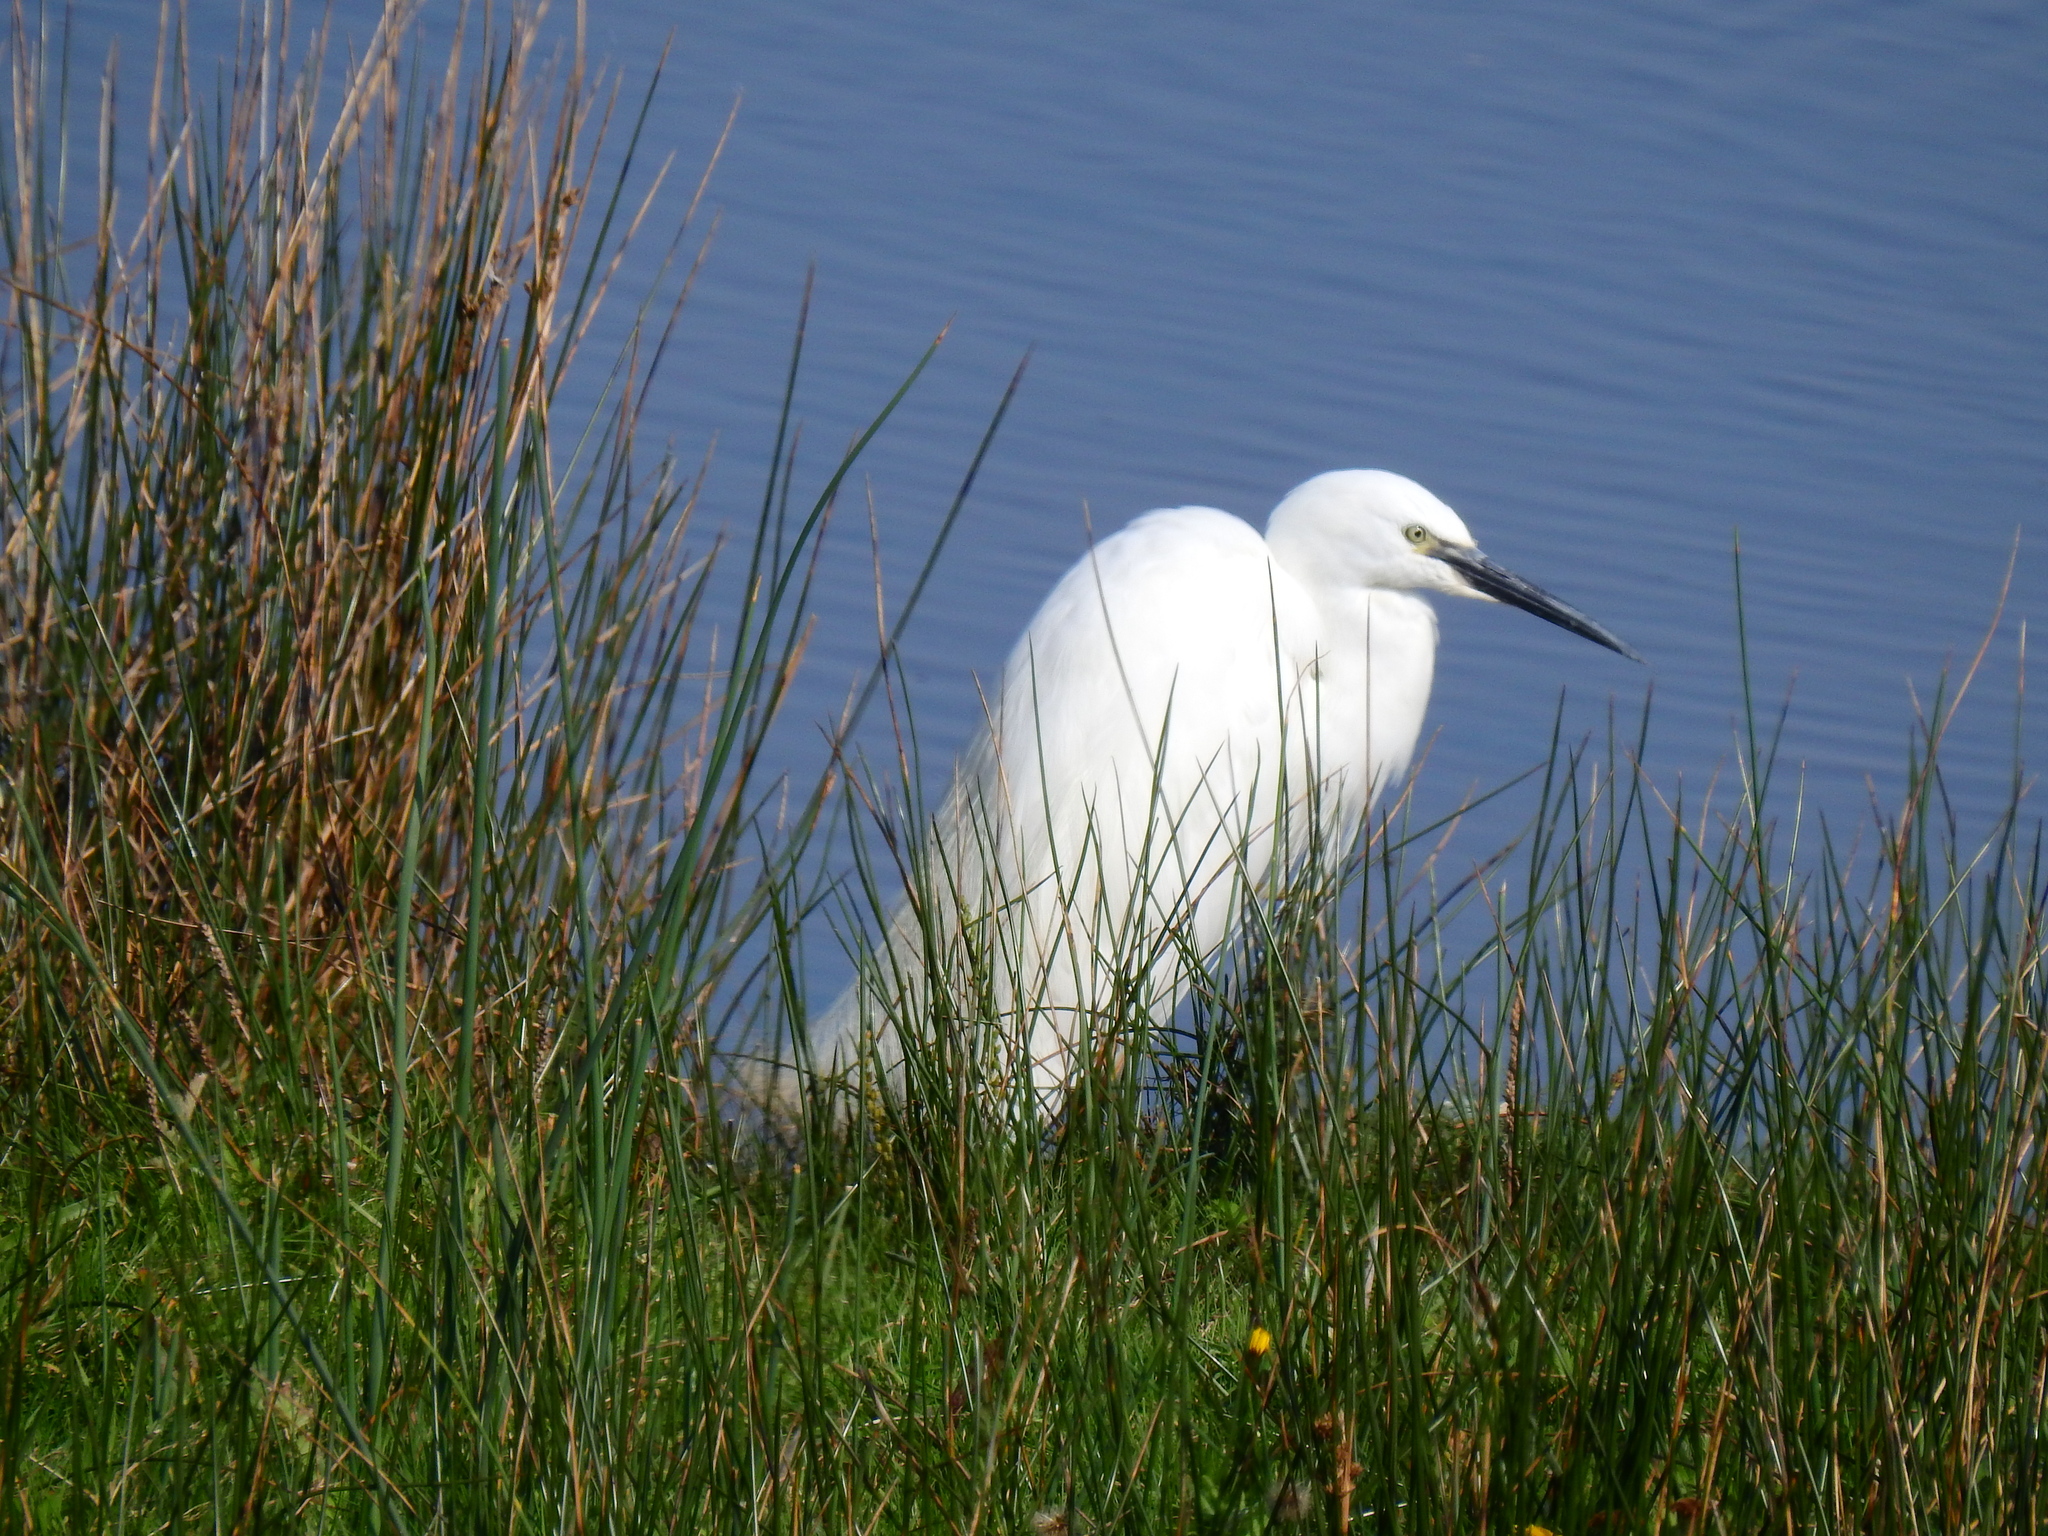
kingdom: Animalia
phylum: Chordata
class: Aves
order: Pelecaniformes
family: Ardeidae
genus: Egretta
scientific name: Egretta garzetta
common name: Little egret
